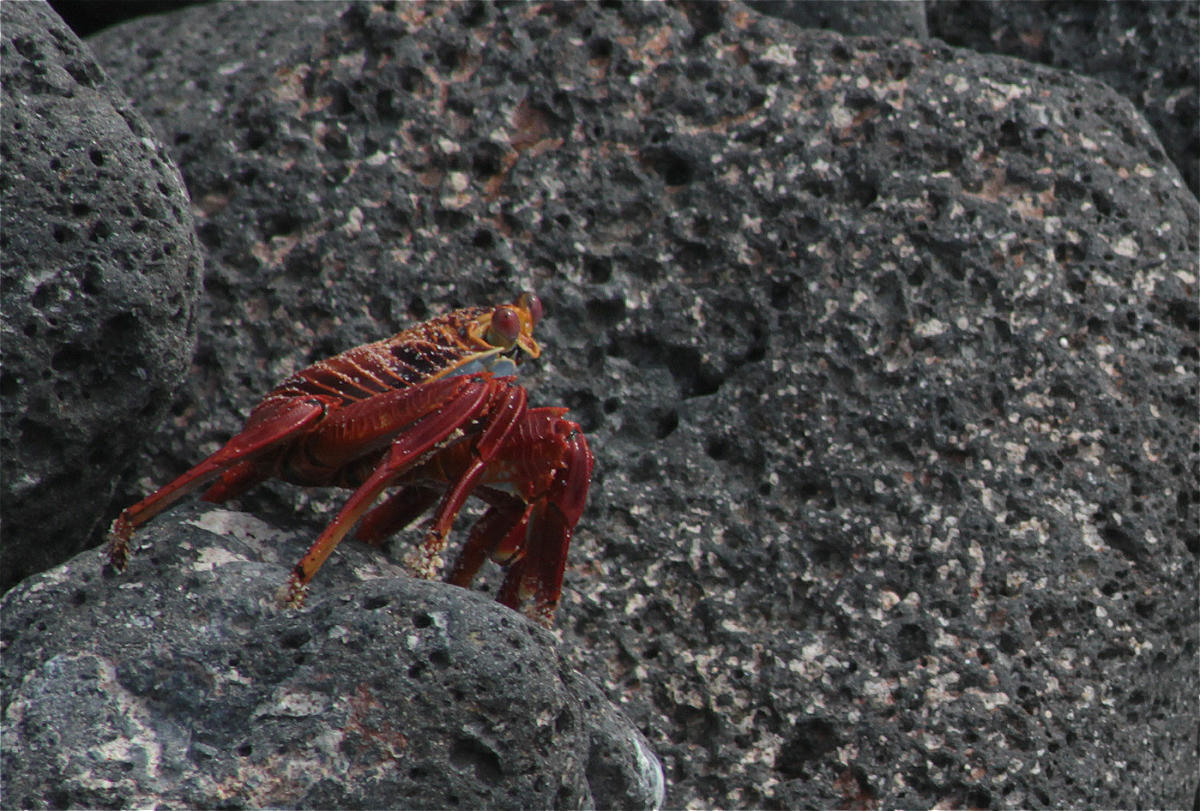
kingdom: Animalia
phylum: Arthropoda
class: Malacostraca
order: Decapoda
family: Grapsidae
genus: Grapsus
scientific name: Grapsus grapsus
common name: Sally lightfoot
